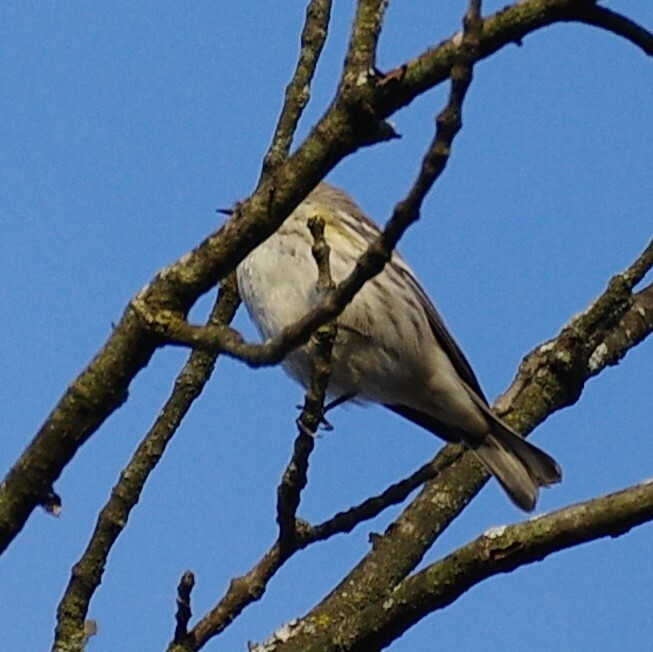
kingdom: Animalia
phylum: Chordata
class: Aves
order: Passeriformes
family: Parulidae
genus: Setophaga
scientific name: Setophaga coronata
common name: Myrtle warbler
